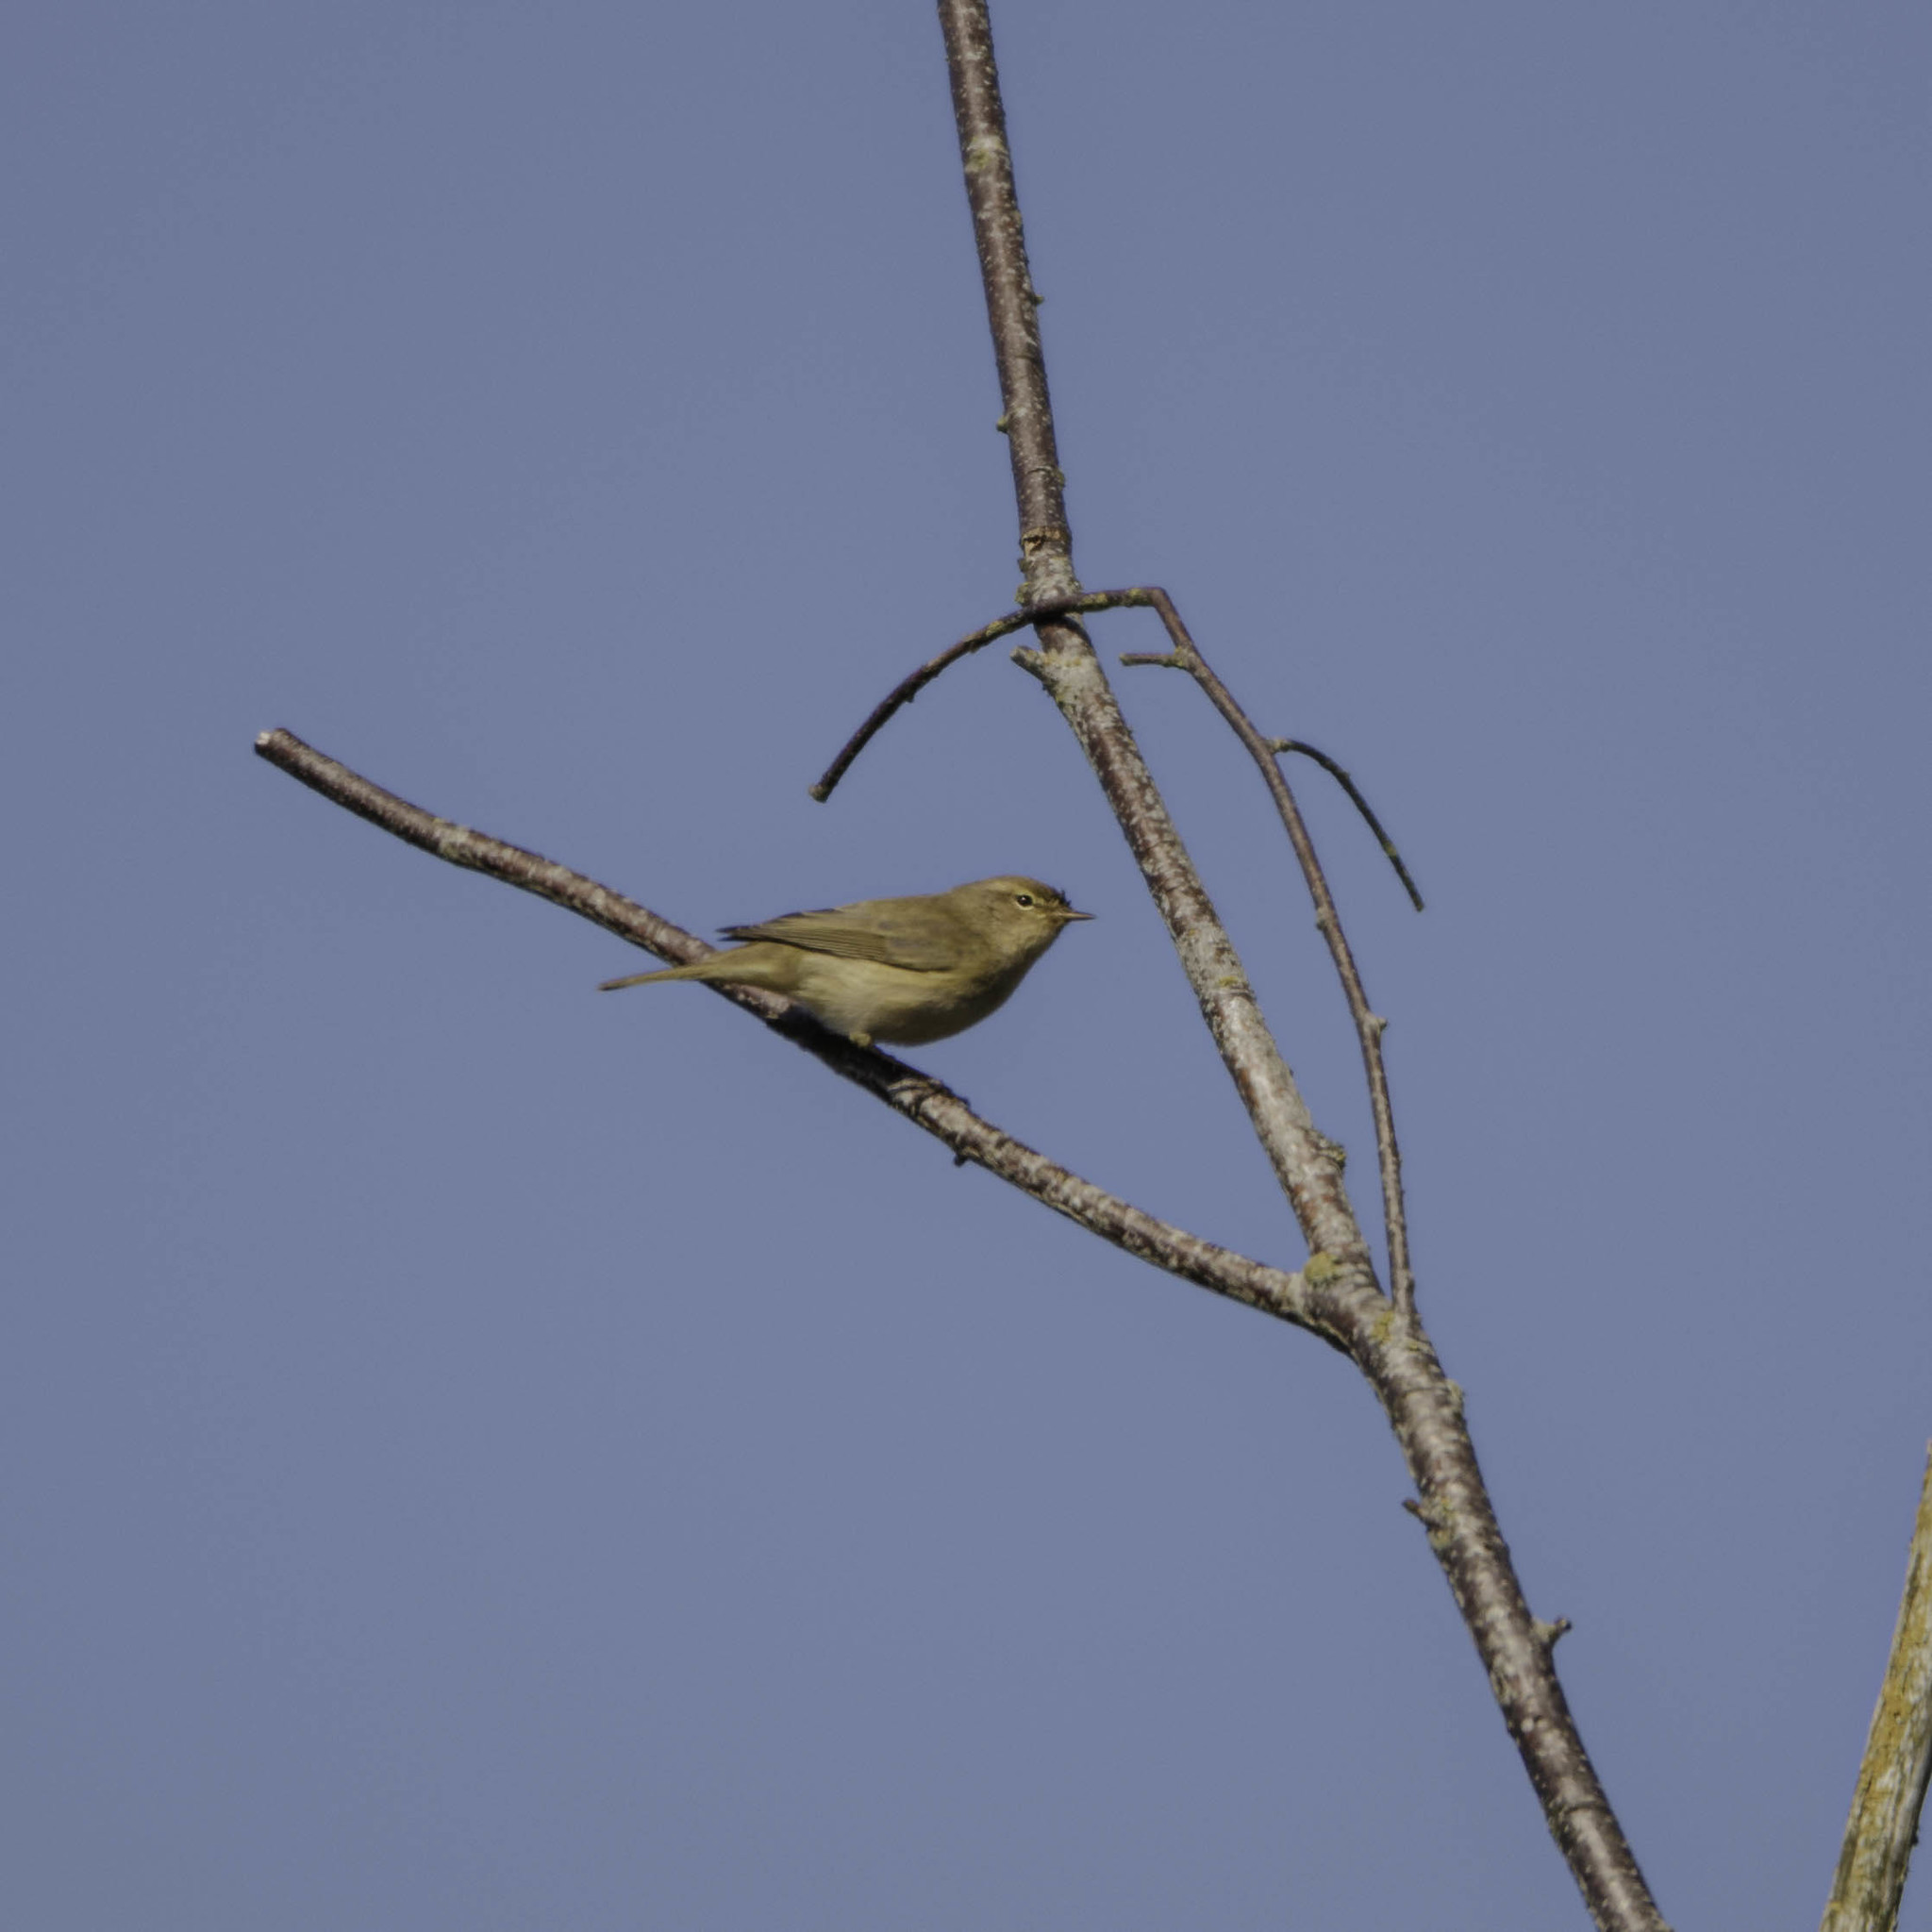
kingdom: Animalia
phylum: Chordata
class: Aves
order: Passeriformes
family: Phylloscopidae
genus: Phylloscopus
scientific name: Phylloscopus collybita
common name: Common chiffchaff
